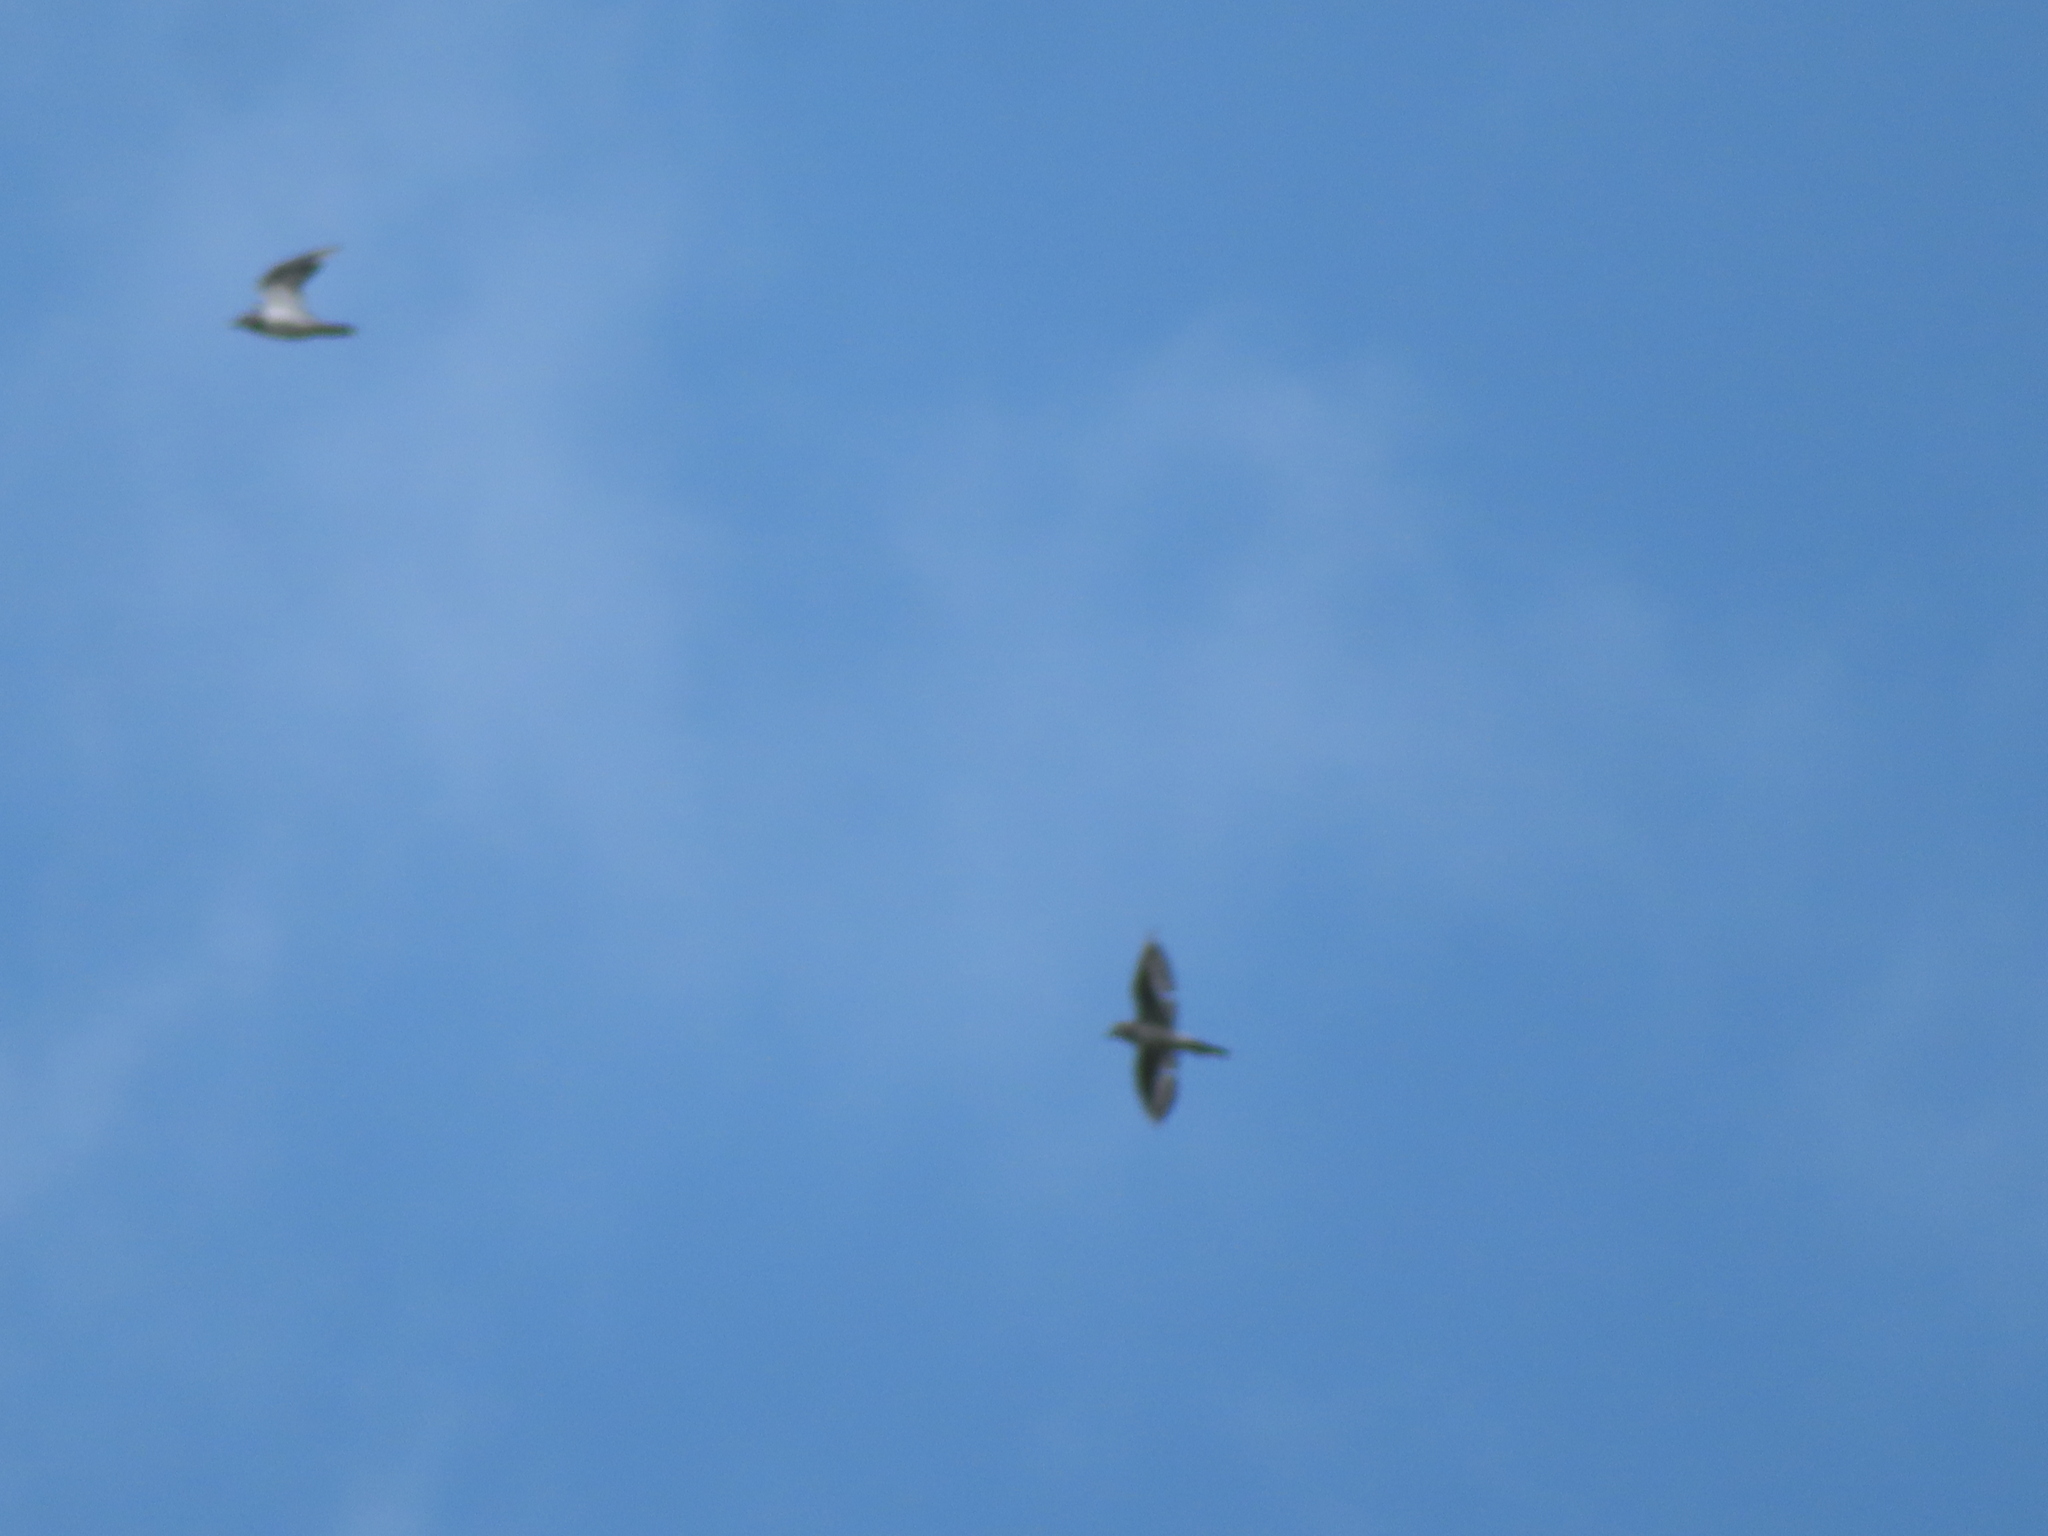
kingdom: Animalia
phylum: Chordata
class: Aves
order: Columbiformes
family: Columbidae
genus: Columba
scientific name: Columba livia
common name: Rock pigeon
